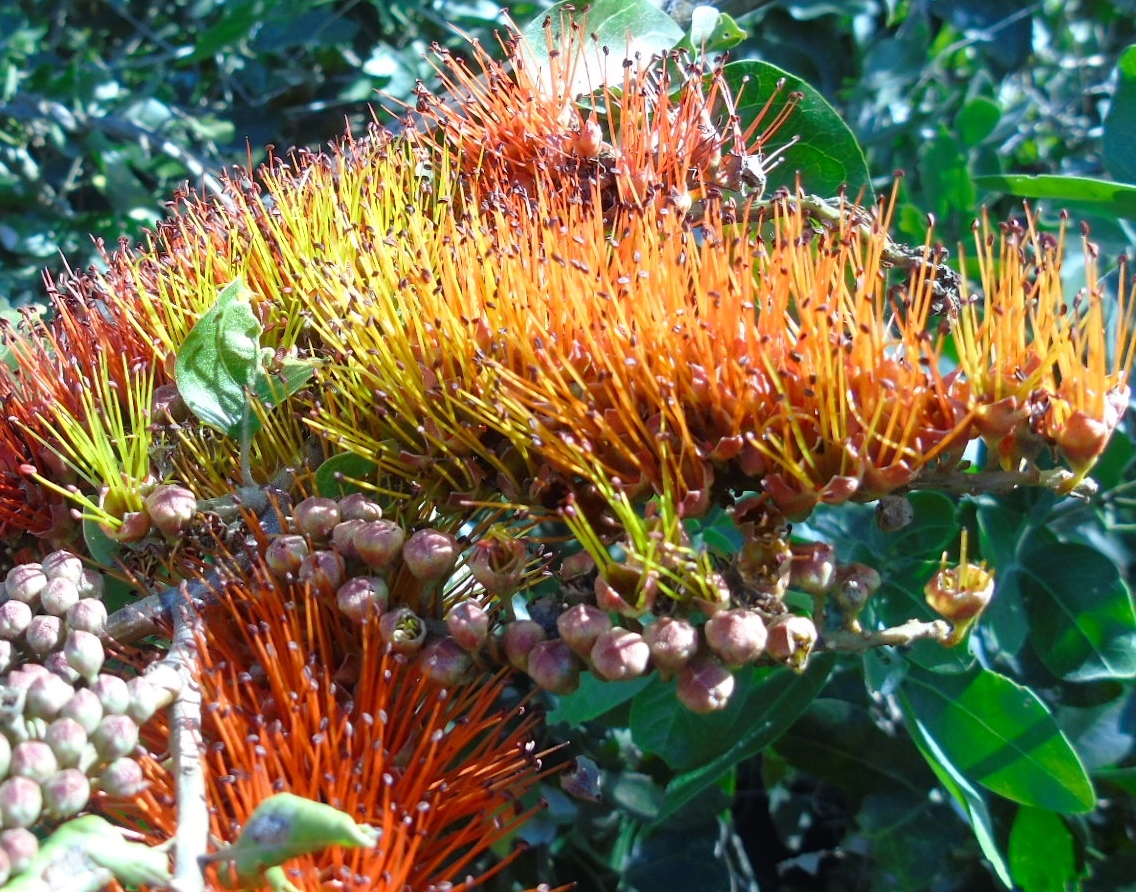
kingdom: Plantae
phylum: Tracheophyta
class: Magnoliopsida
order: Myrtales
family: Combretaceae
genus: Combretum
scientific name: Combretum farinosum
